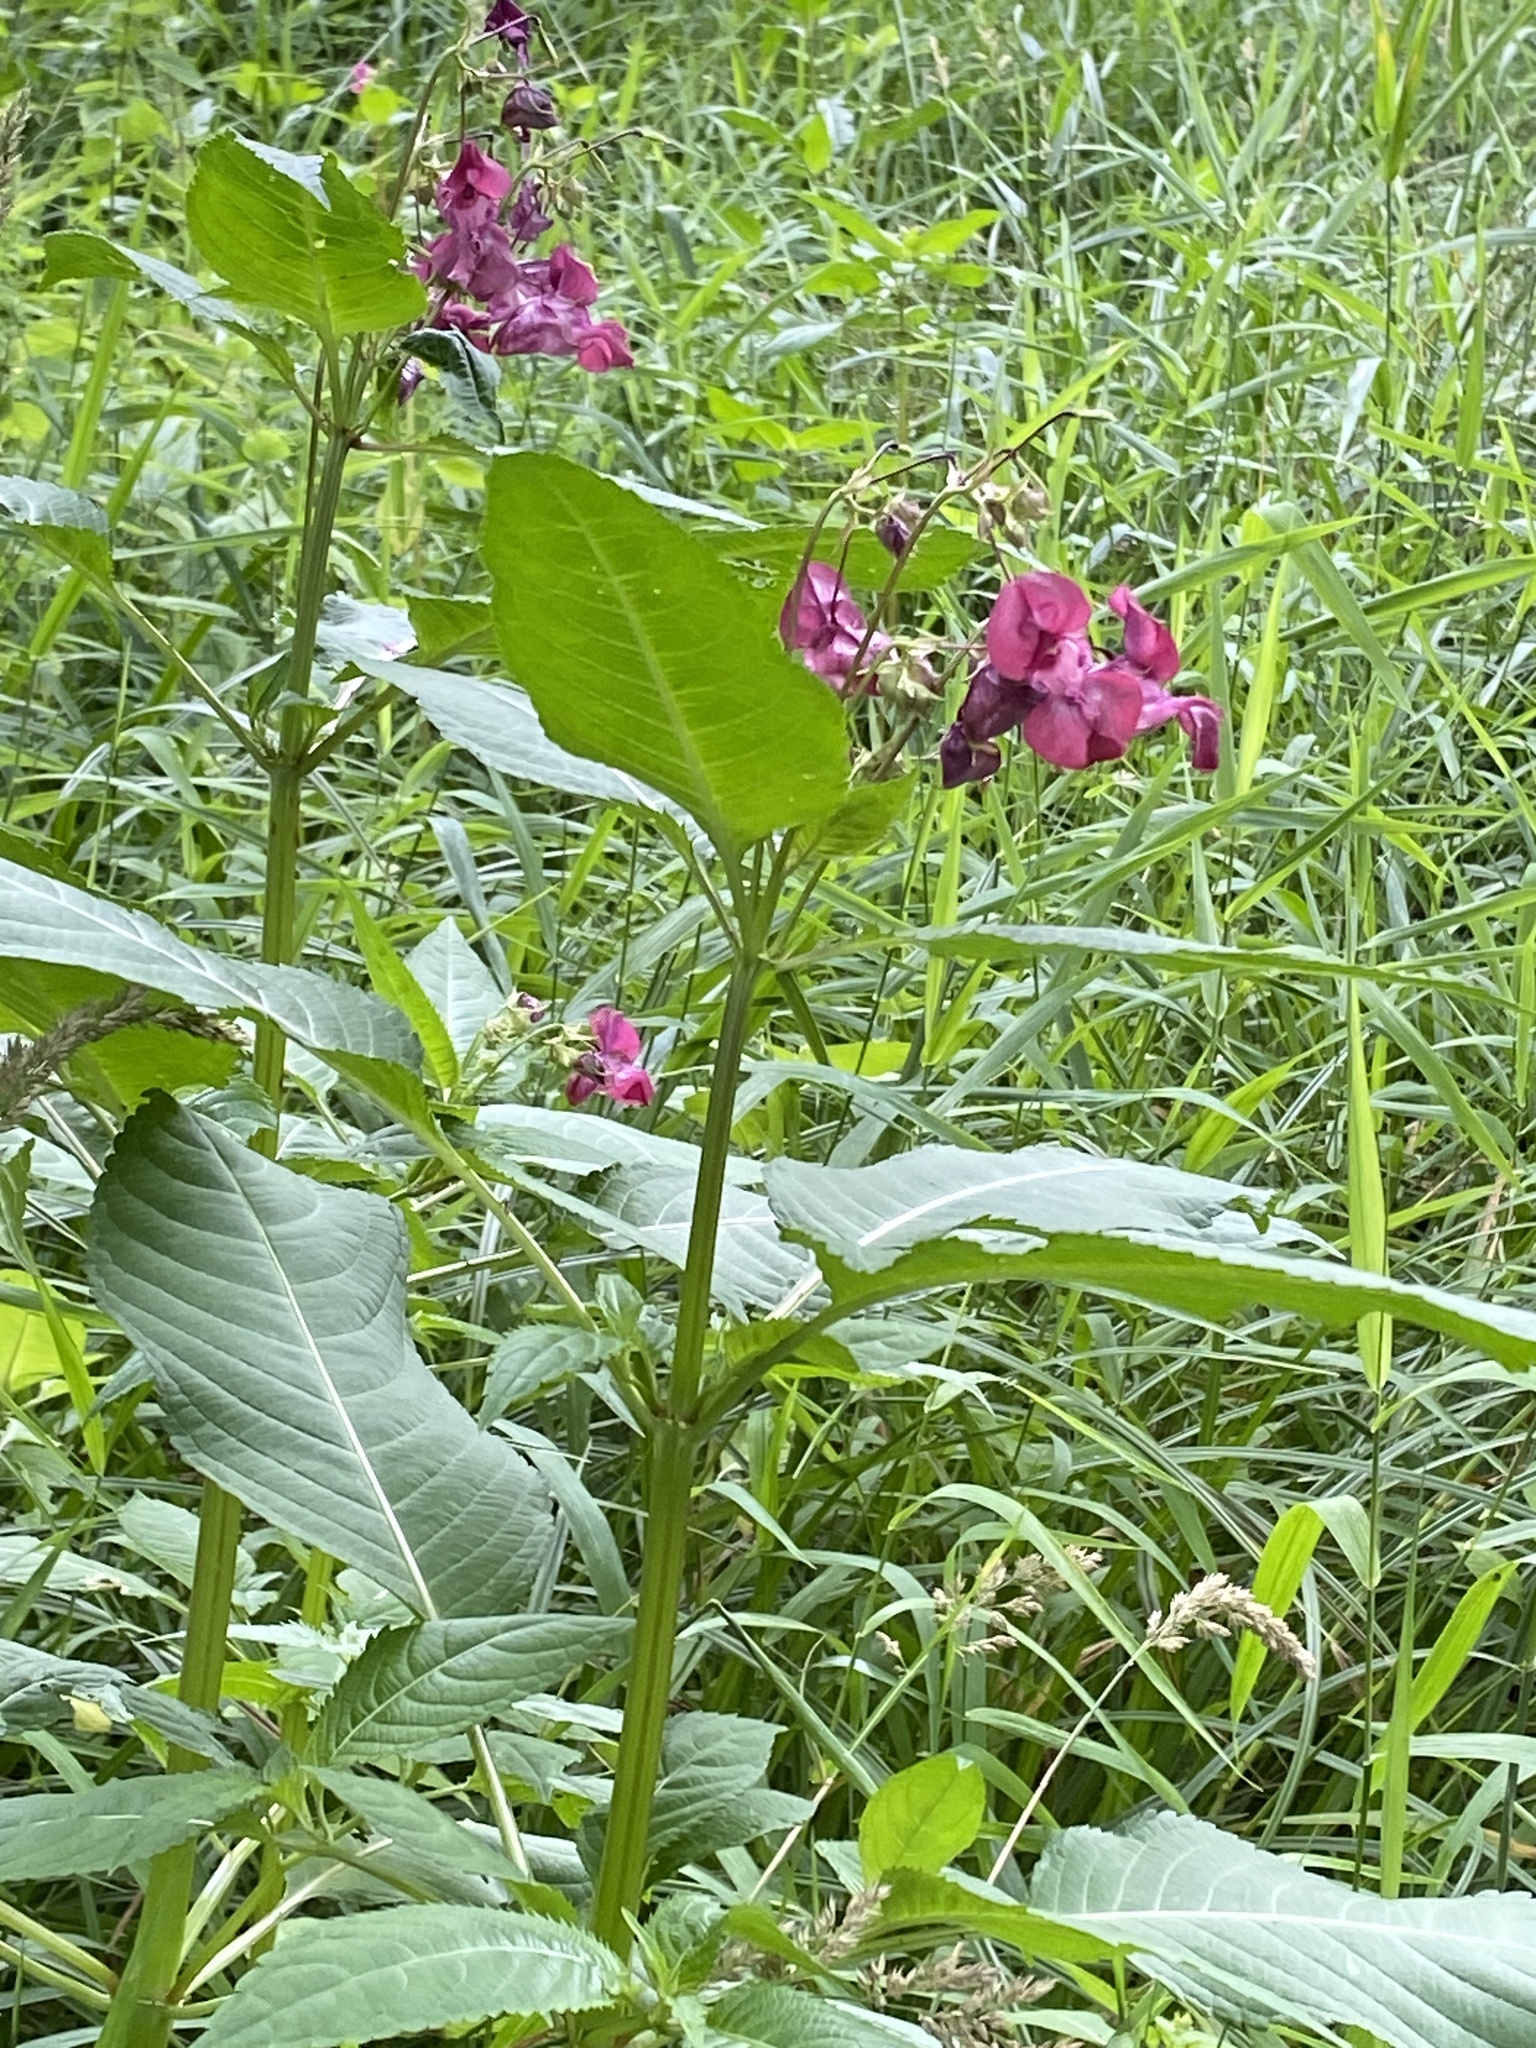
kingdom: Plantae
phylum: Tracheophyta
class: Magnoliopsida
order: Ericales
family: Balsaminaceae
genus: Impatiens
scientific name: Impatiens glandulifera
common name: Himalayan balsam
